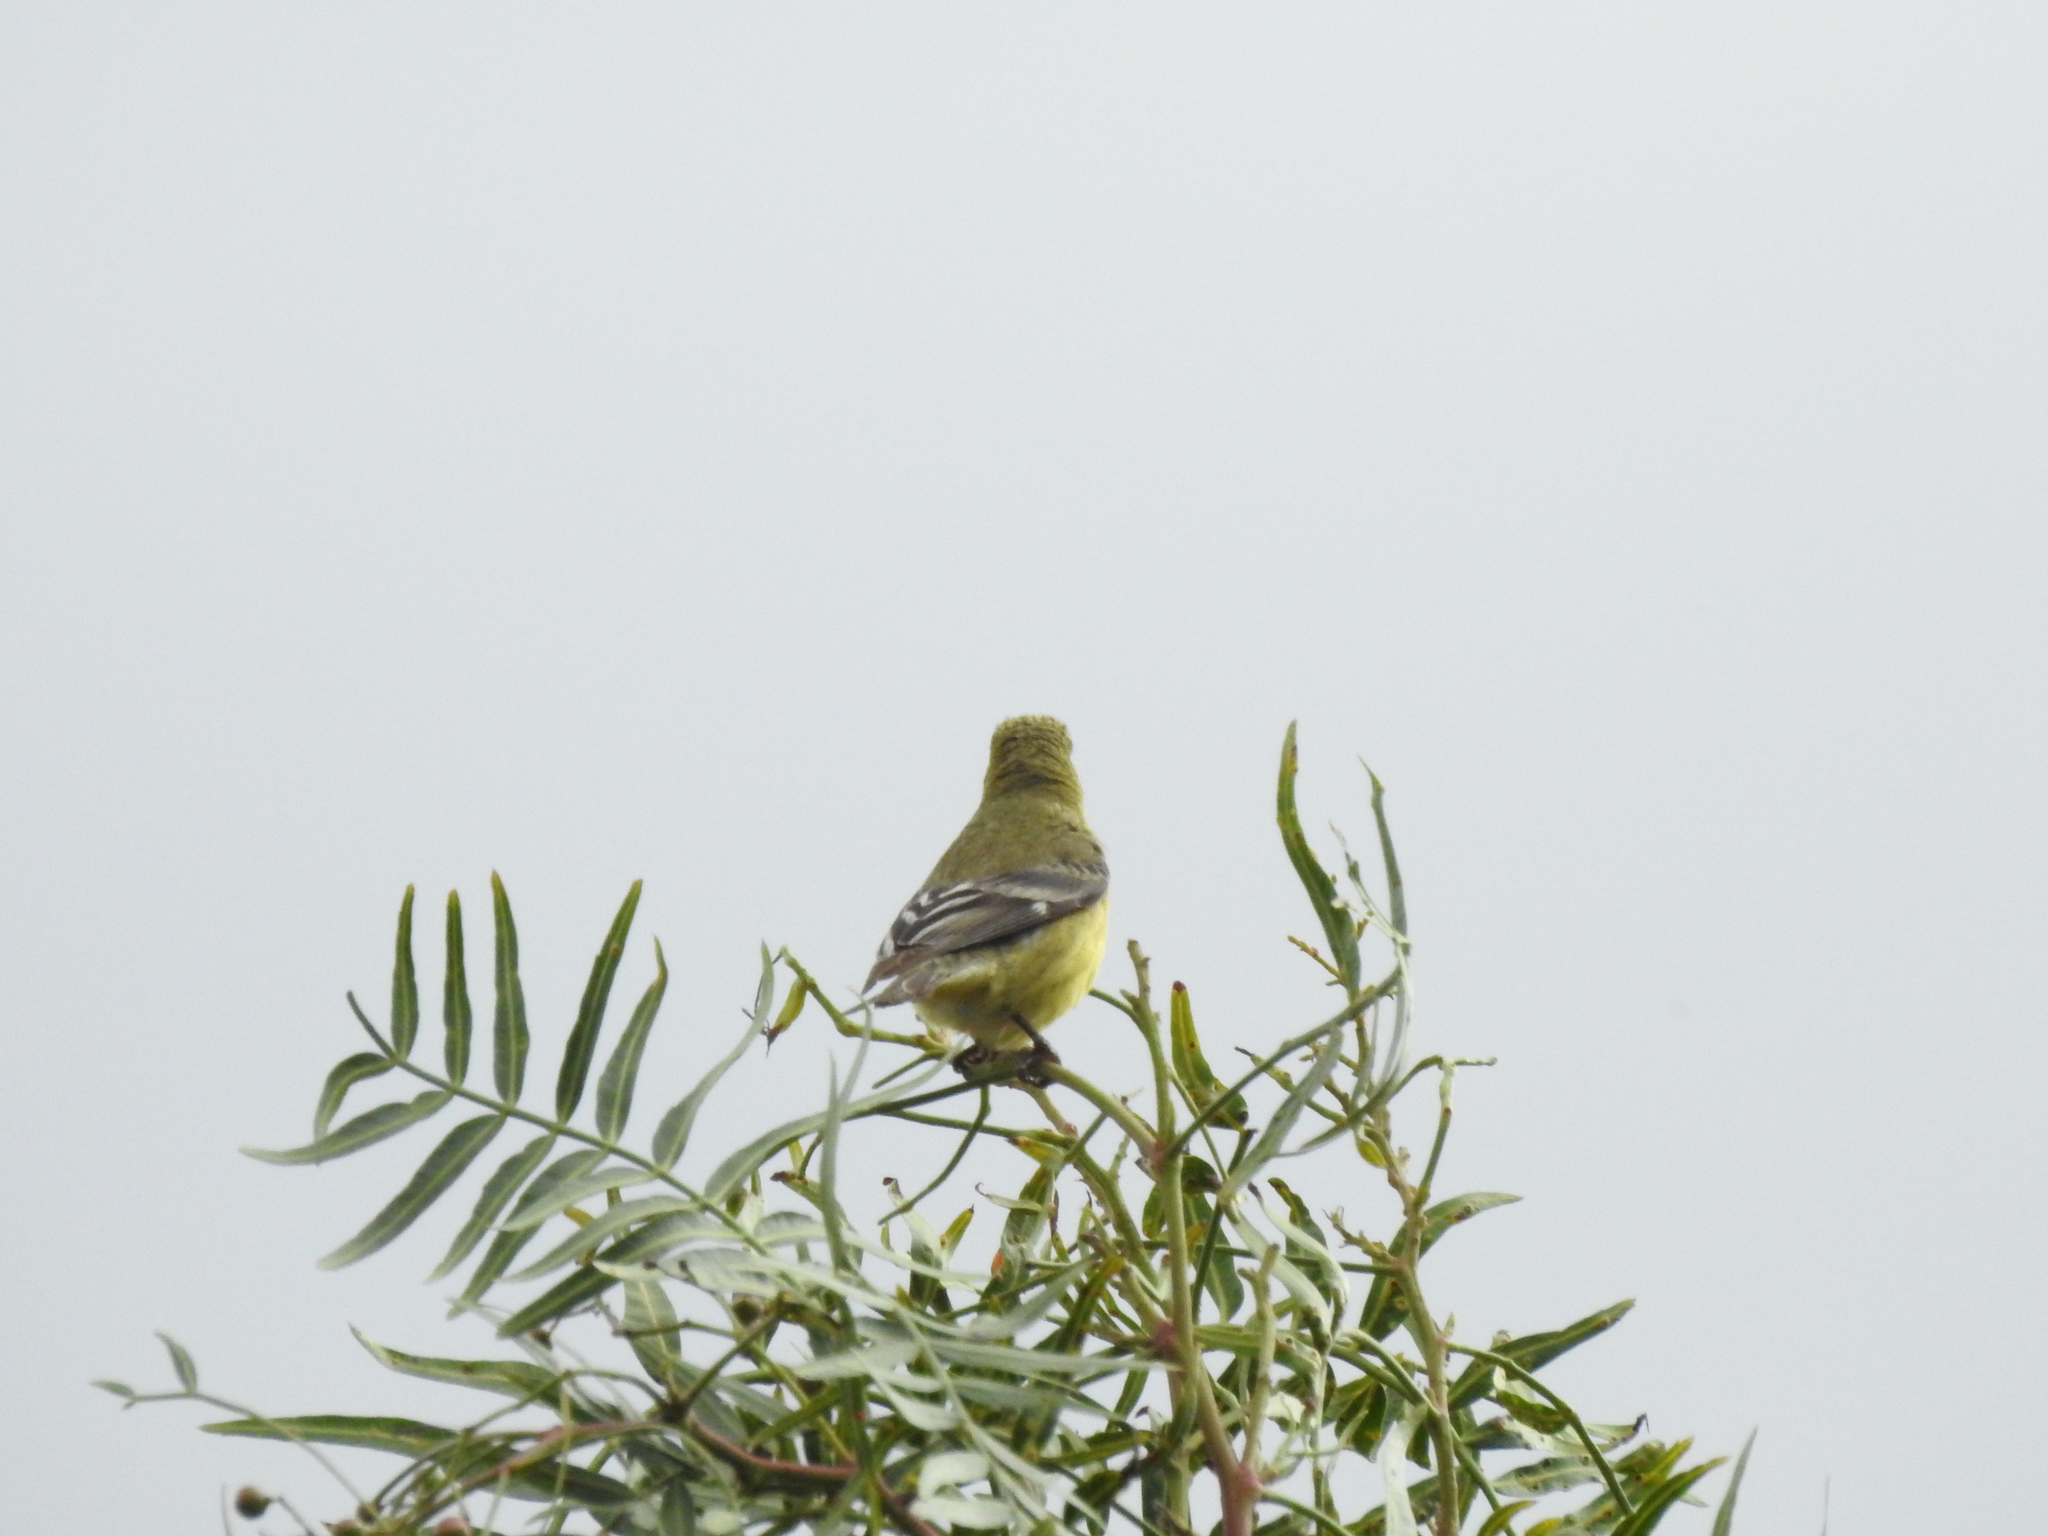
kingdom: Animalia
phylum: Chordata
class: Aves
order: Passeriformes
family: Fringillidae
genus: Spinus
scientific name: Spinus psaltria
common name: Lesser goldfinch
